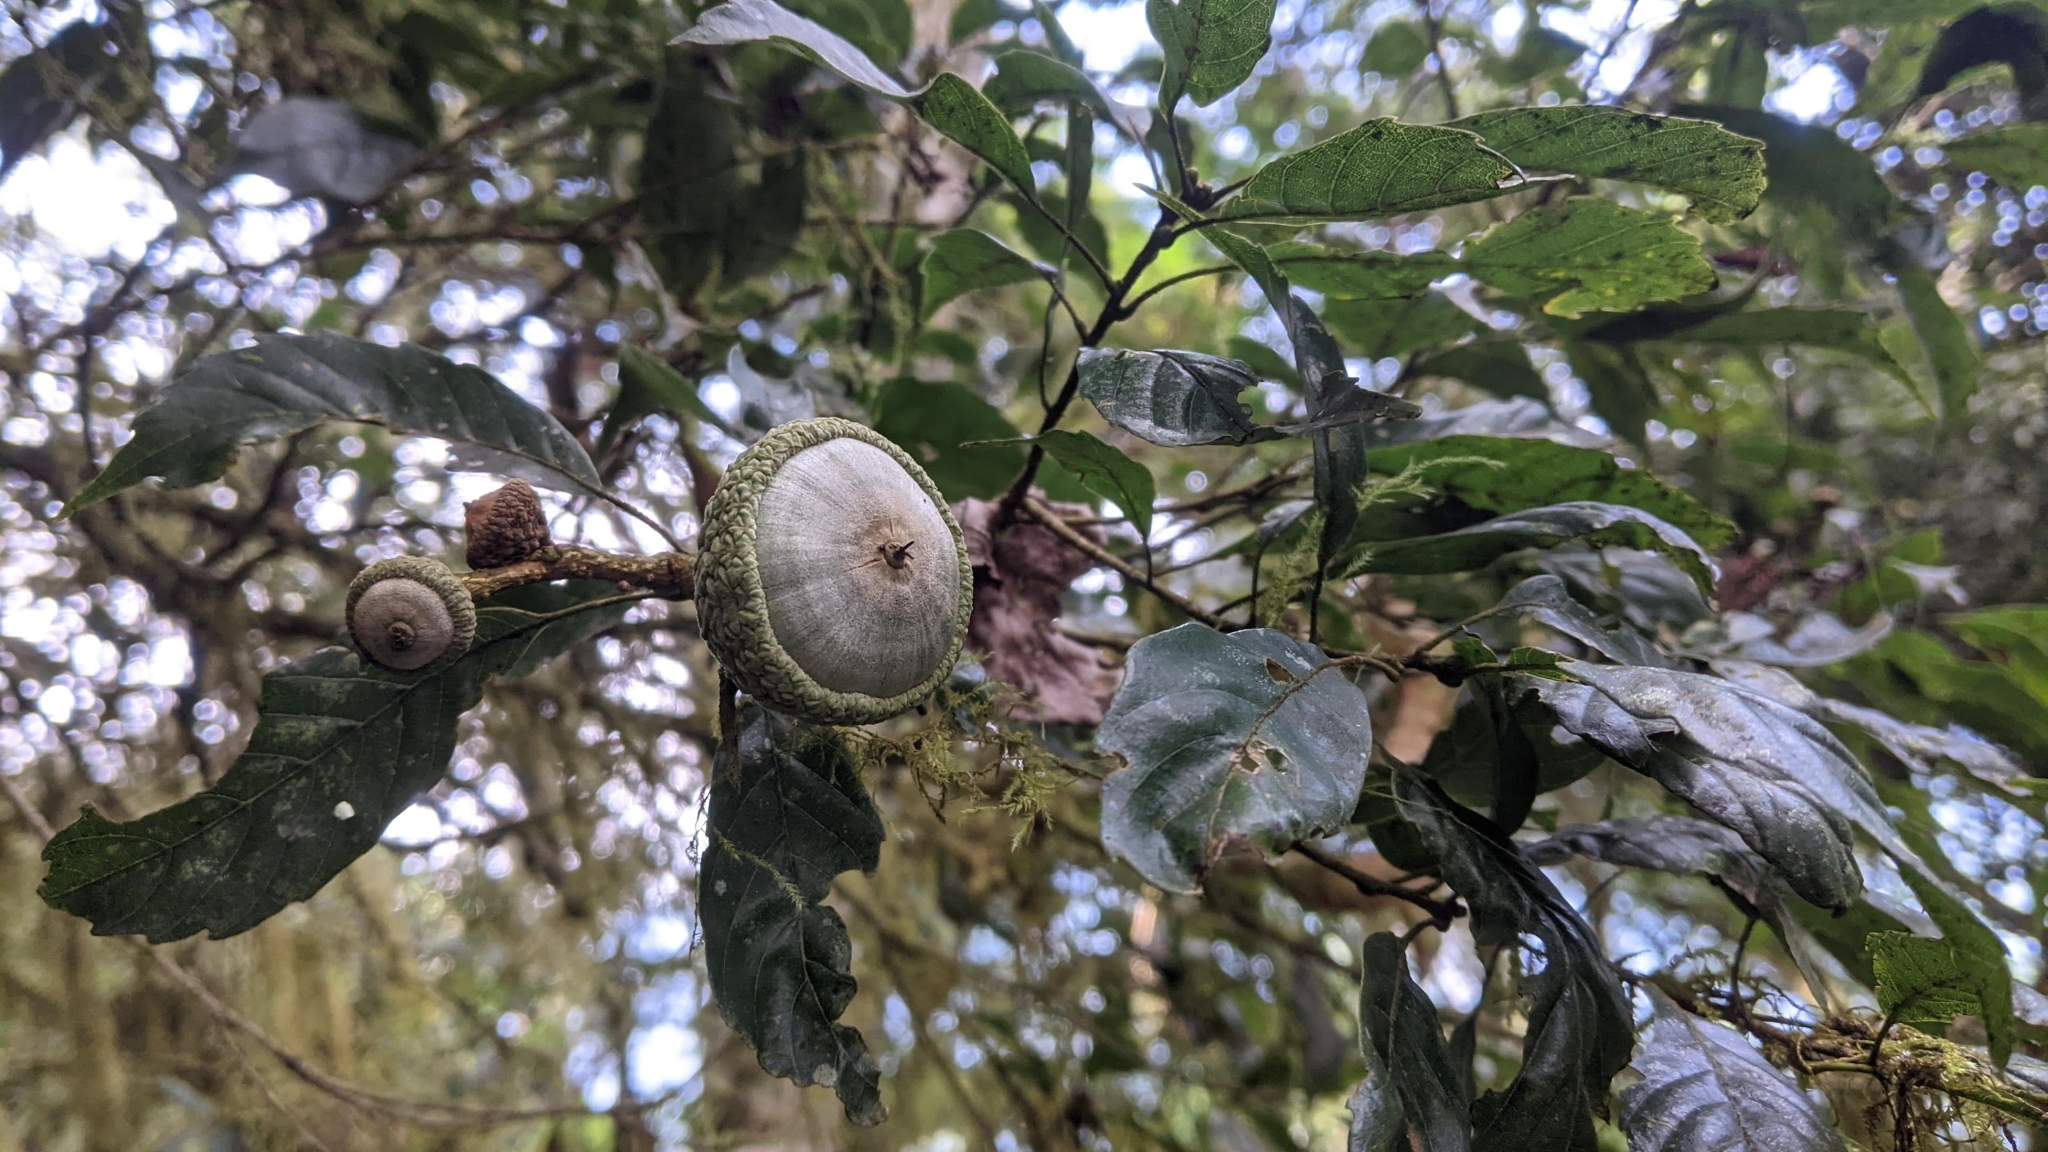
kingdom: Plantae
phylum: Tracheophyta
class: Magnoliopsida
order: Fagales
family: Fagaceae
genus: Lithocarpus
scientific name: Lithocarpus corneus
